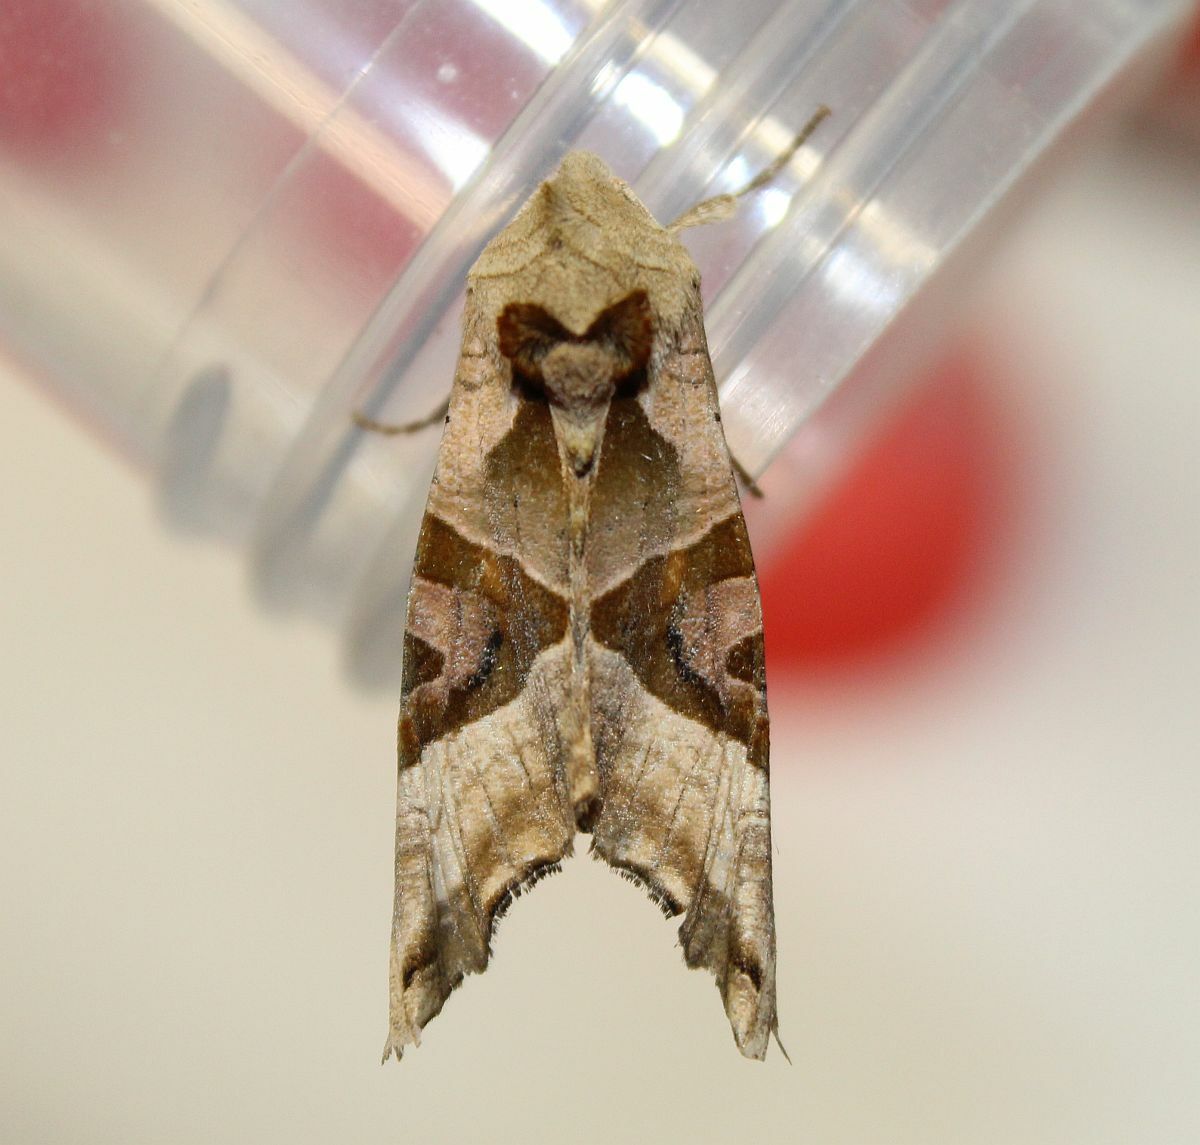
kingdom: Animalia
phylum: Arthropoda
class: Insecta
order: Lepidoptera
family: Noctuidae
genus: Phlogophora
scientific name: Phlogophora meticulosa
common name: Angle shades
